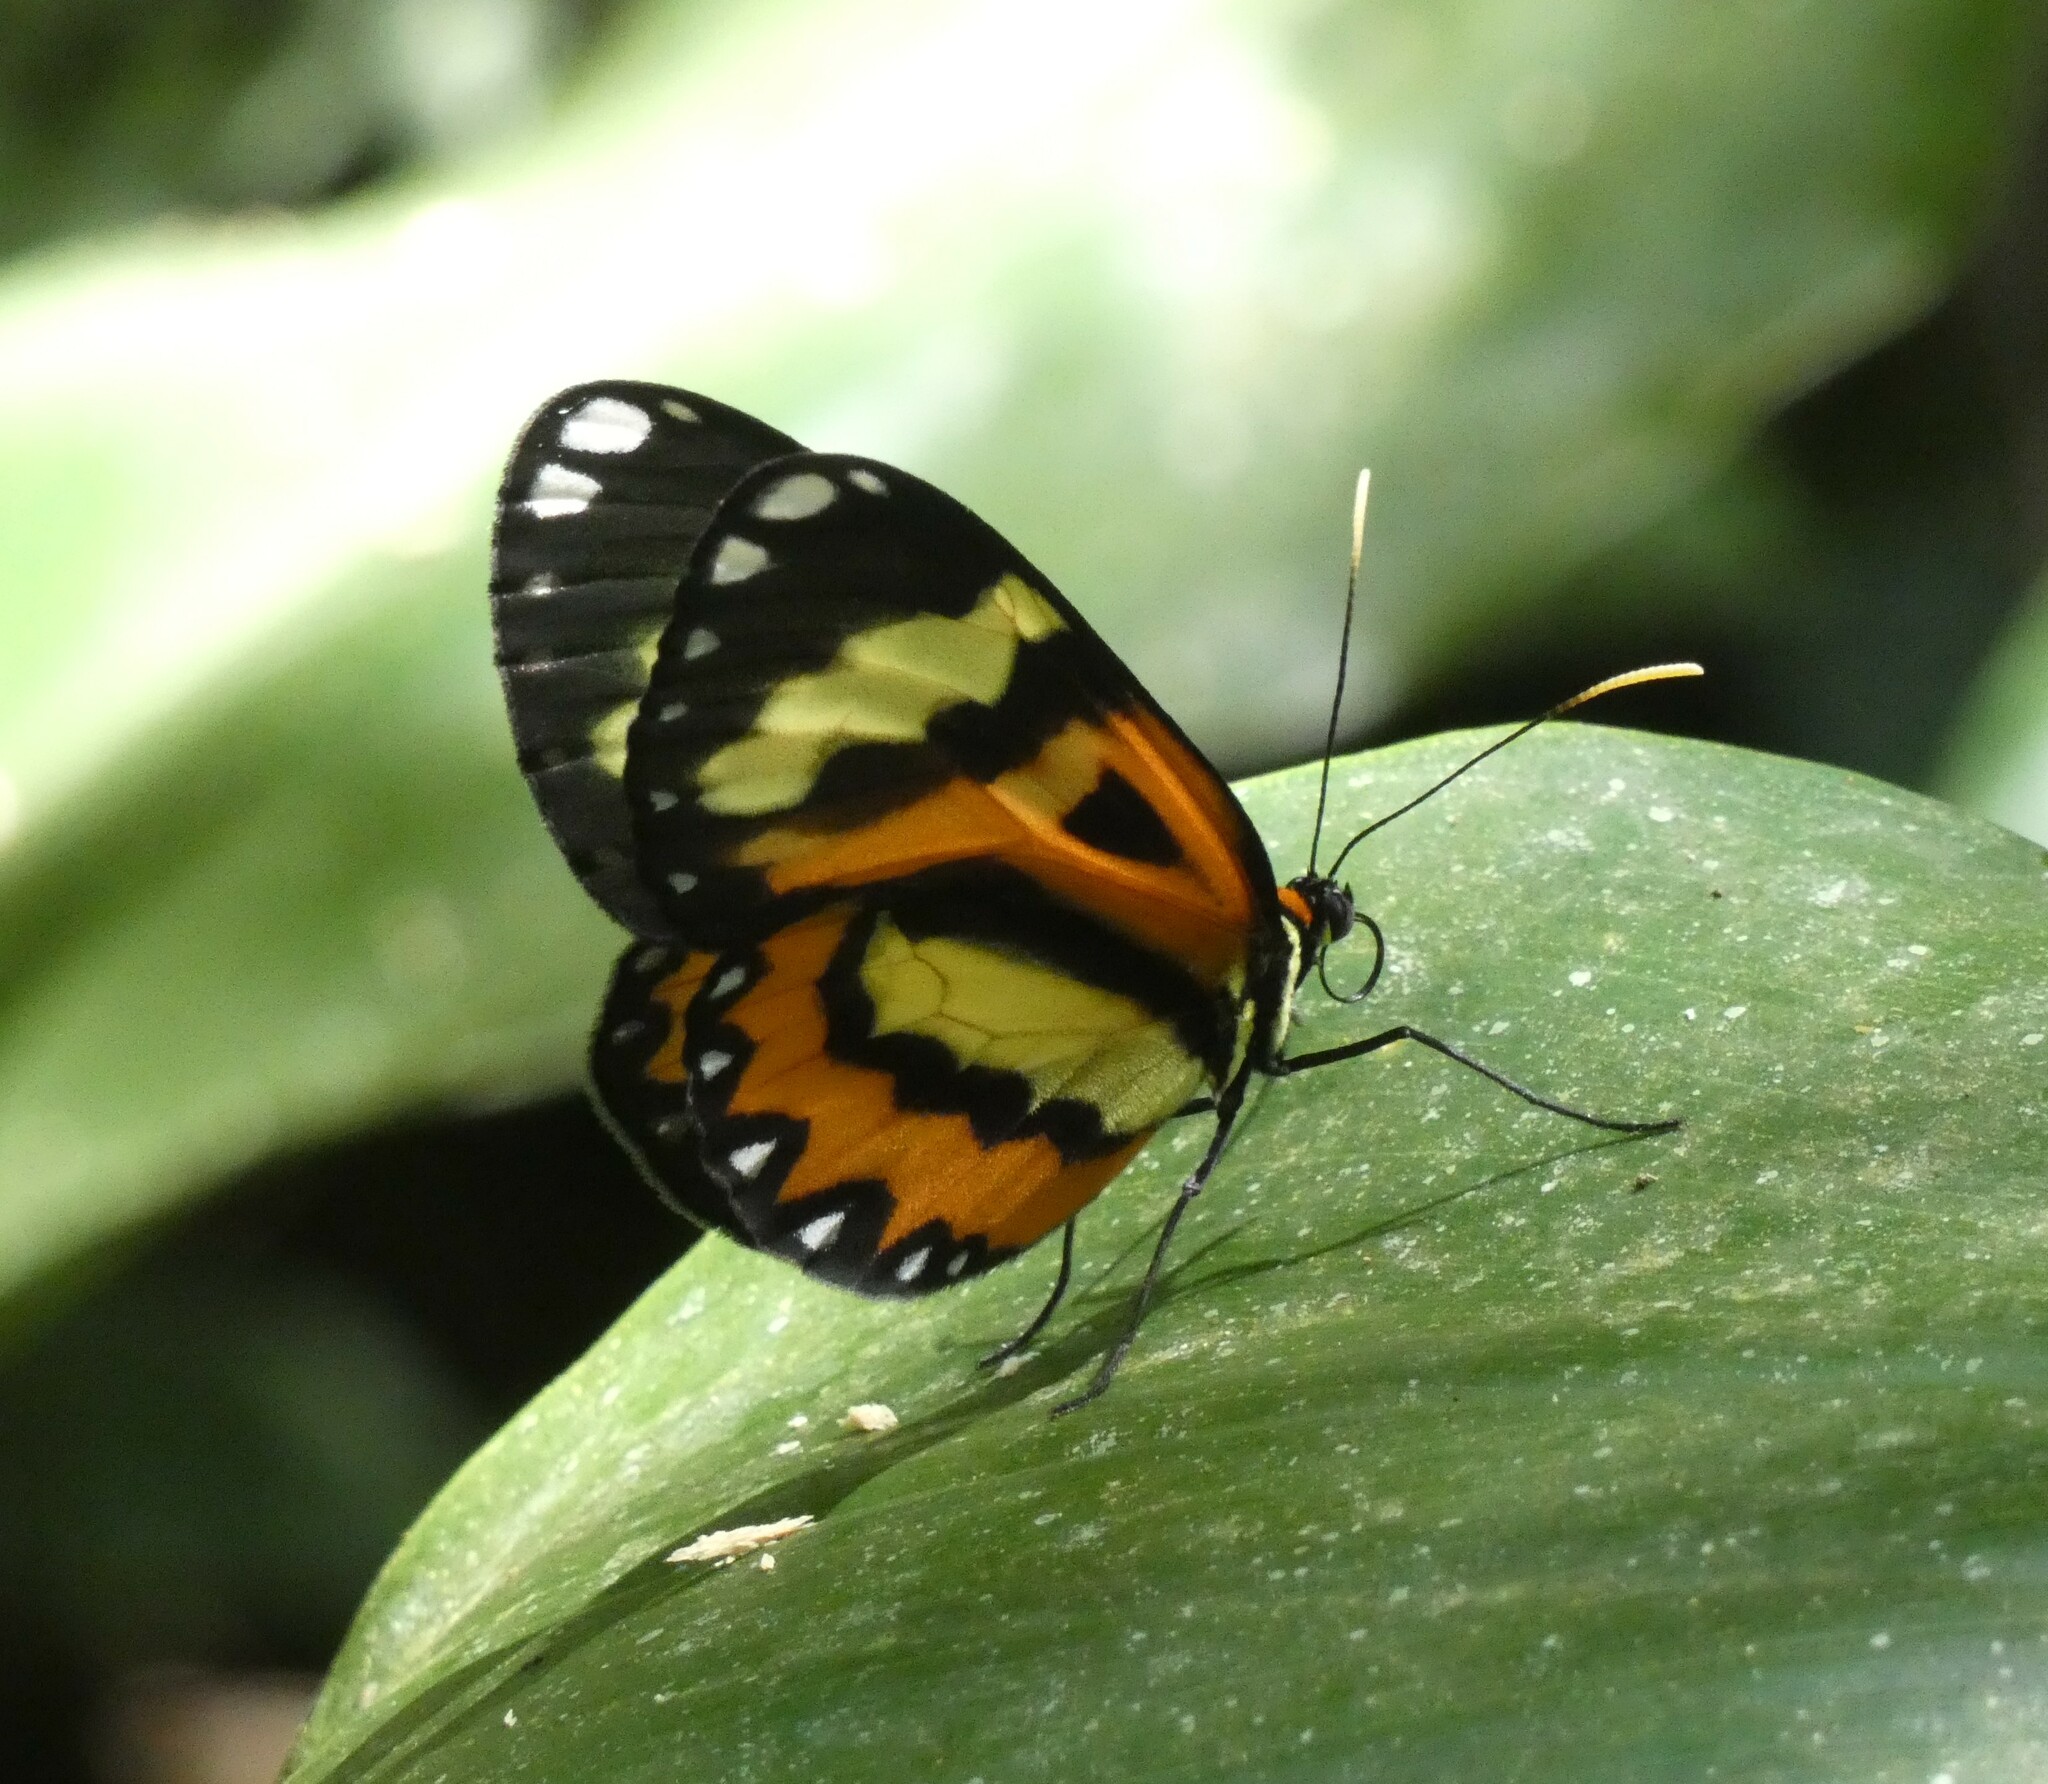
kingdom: Animalia
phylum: Arthropoda
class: Insecta
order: Lepidoptera
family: Nymphalidae
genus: Placidina
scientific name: Placidina euryanassa
